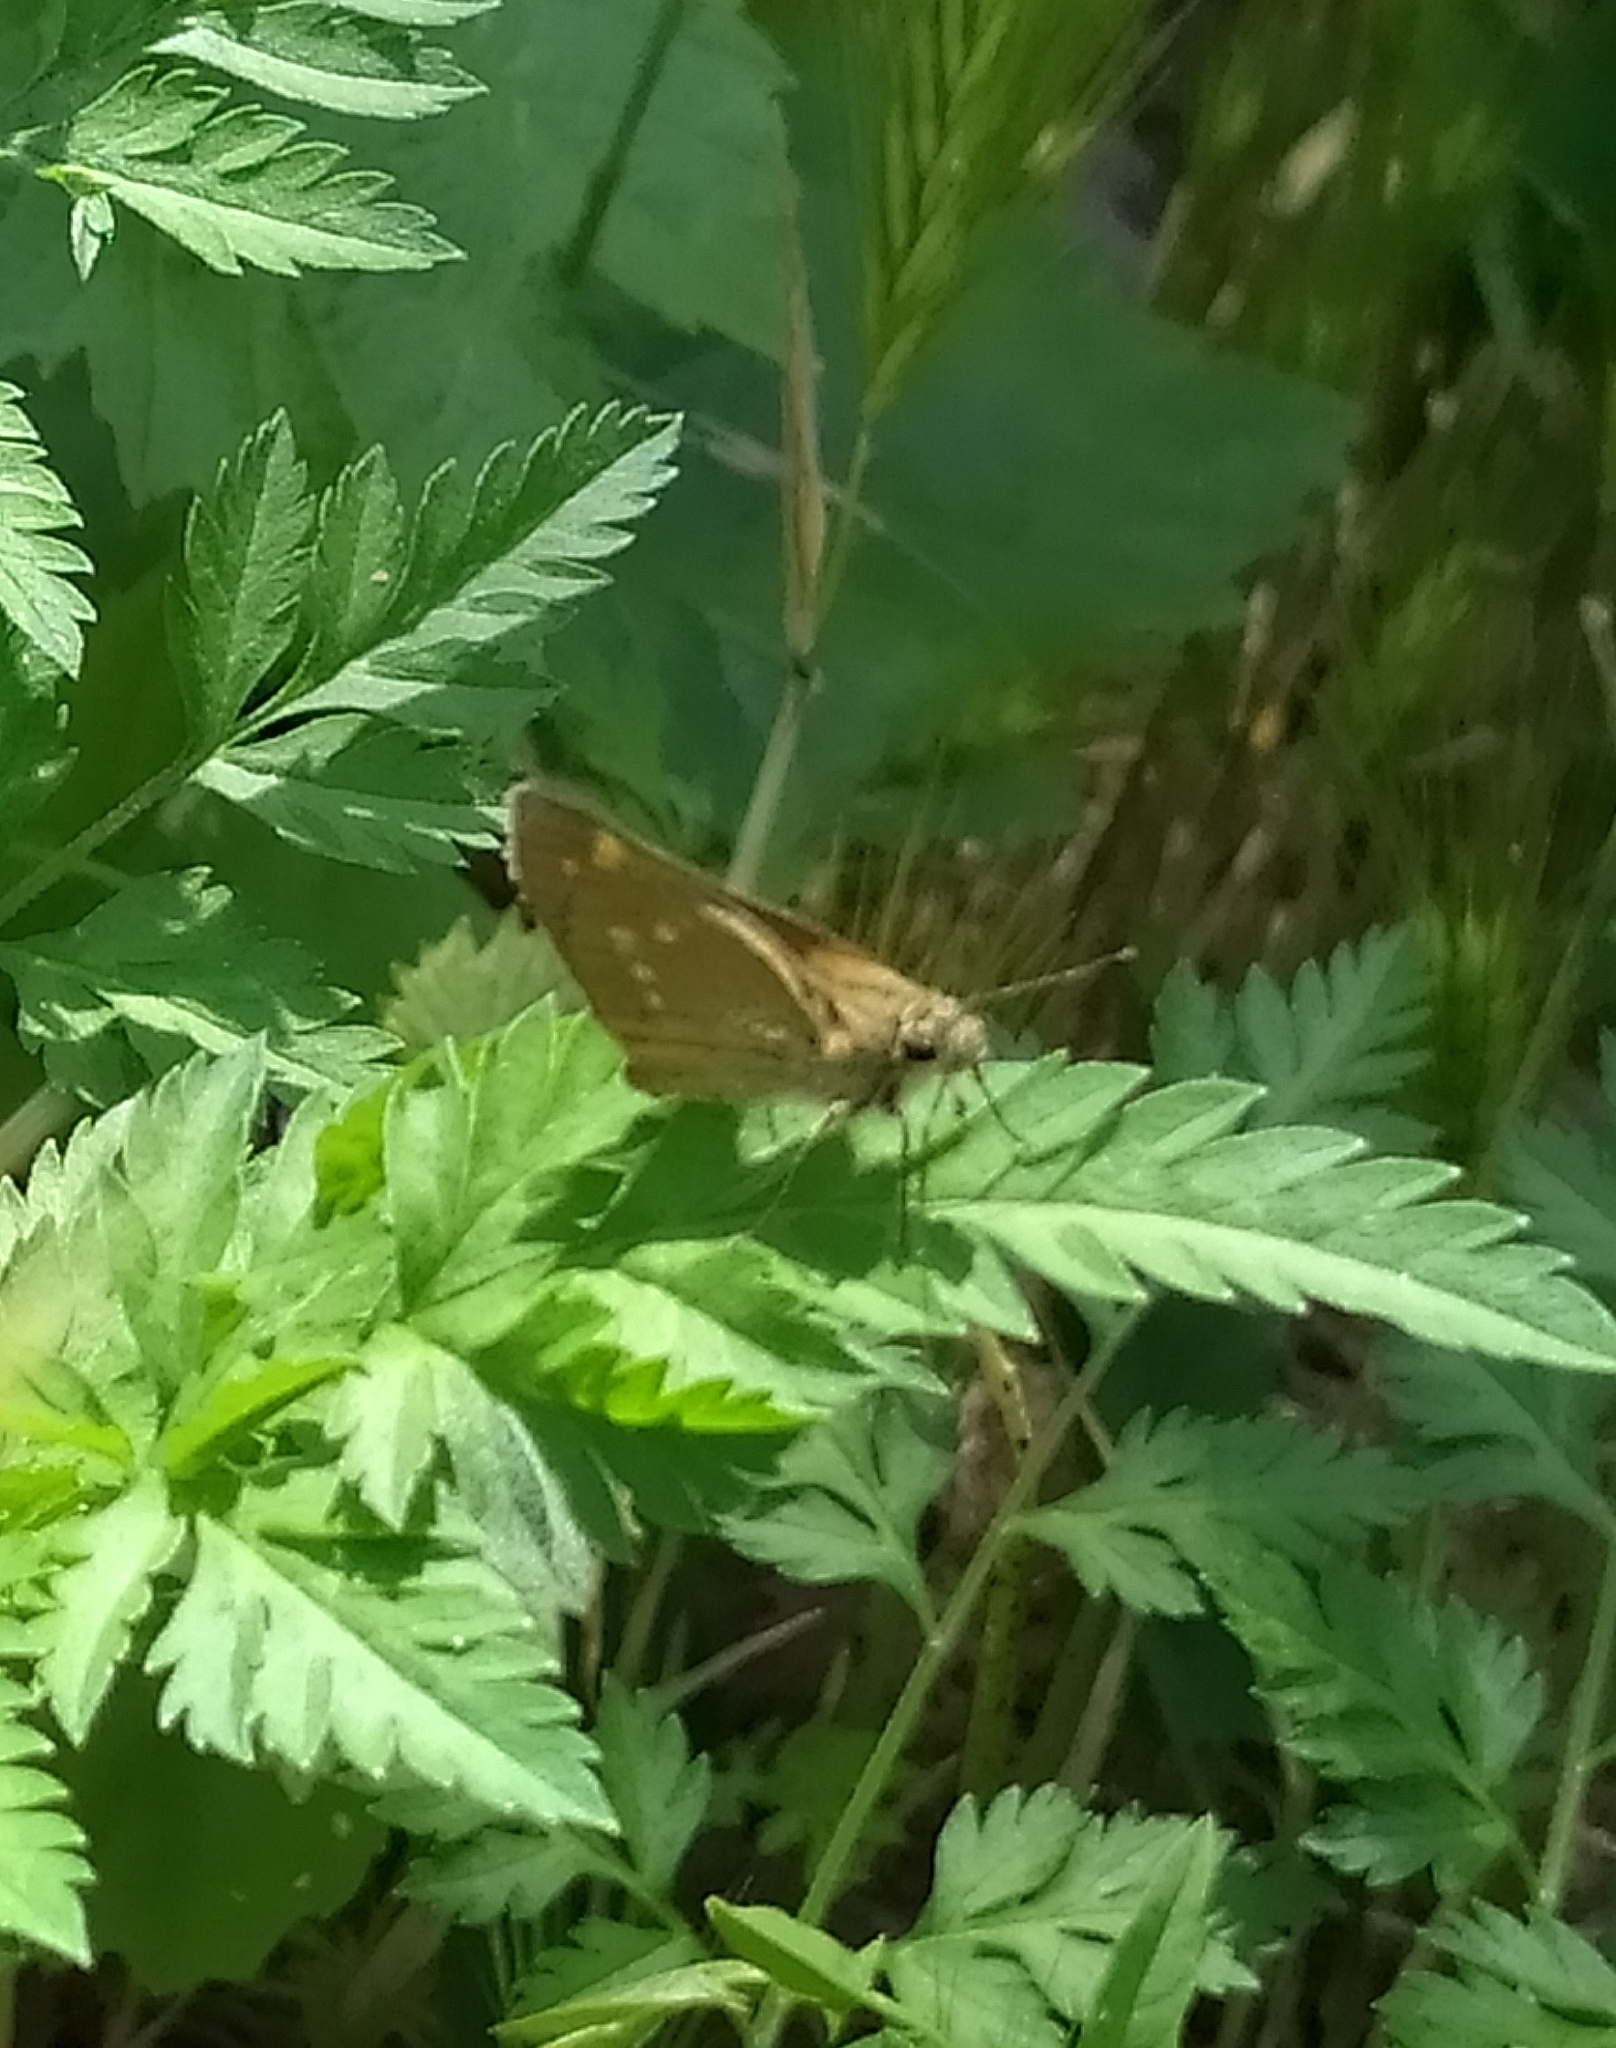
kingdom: Animalia
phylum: Arthropoda
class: Insecta
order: Lepidoptera
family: Hesperiidae
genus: Ochlodes
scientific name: Ochlodes venata
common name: Large skipper
